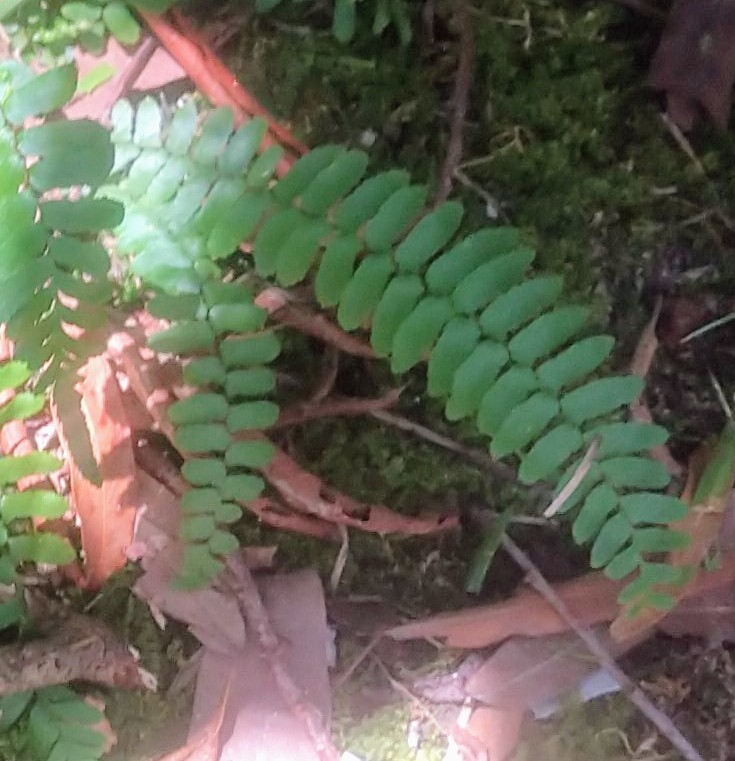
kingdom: Plantae
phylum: Tracheophyta
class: Polypodiopsida
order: Polypodiales
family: Aspleniaceae
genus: Asplenium
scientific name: Asplenium platyneuron
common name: Ebony spleenwort
